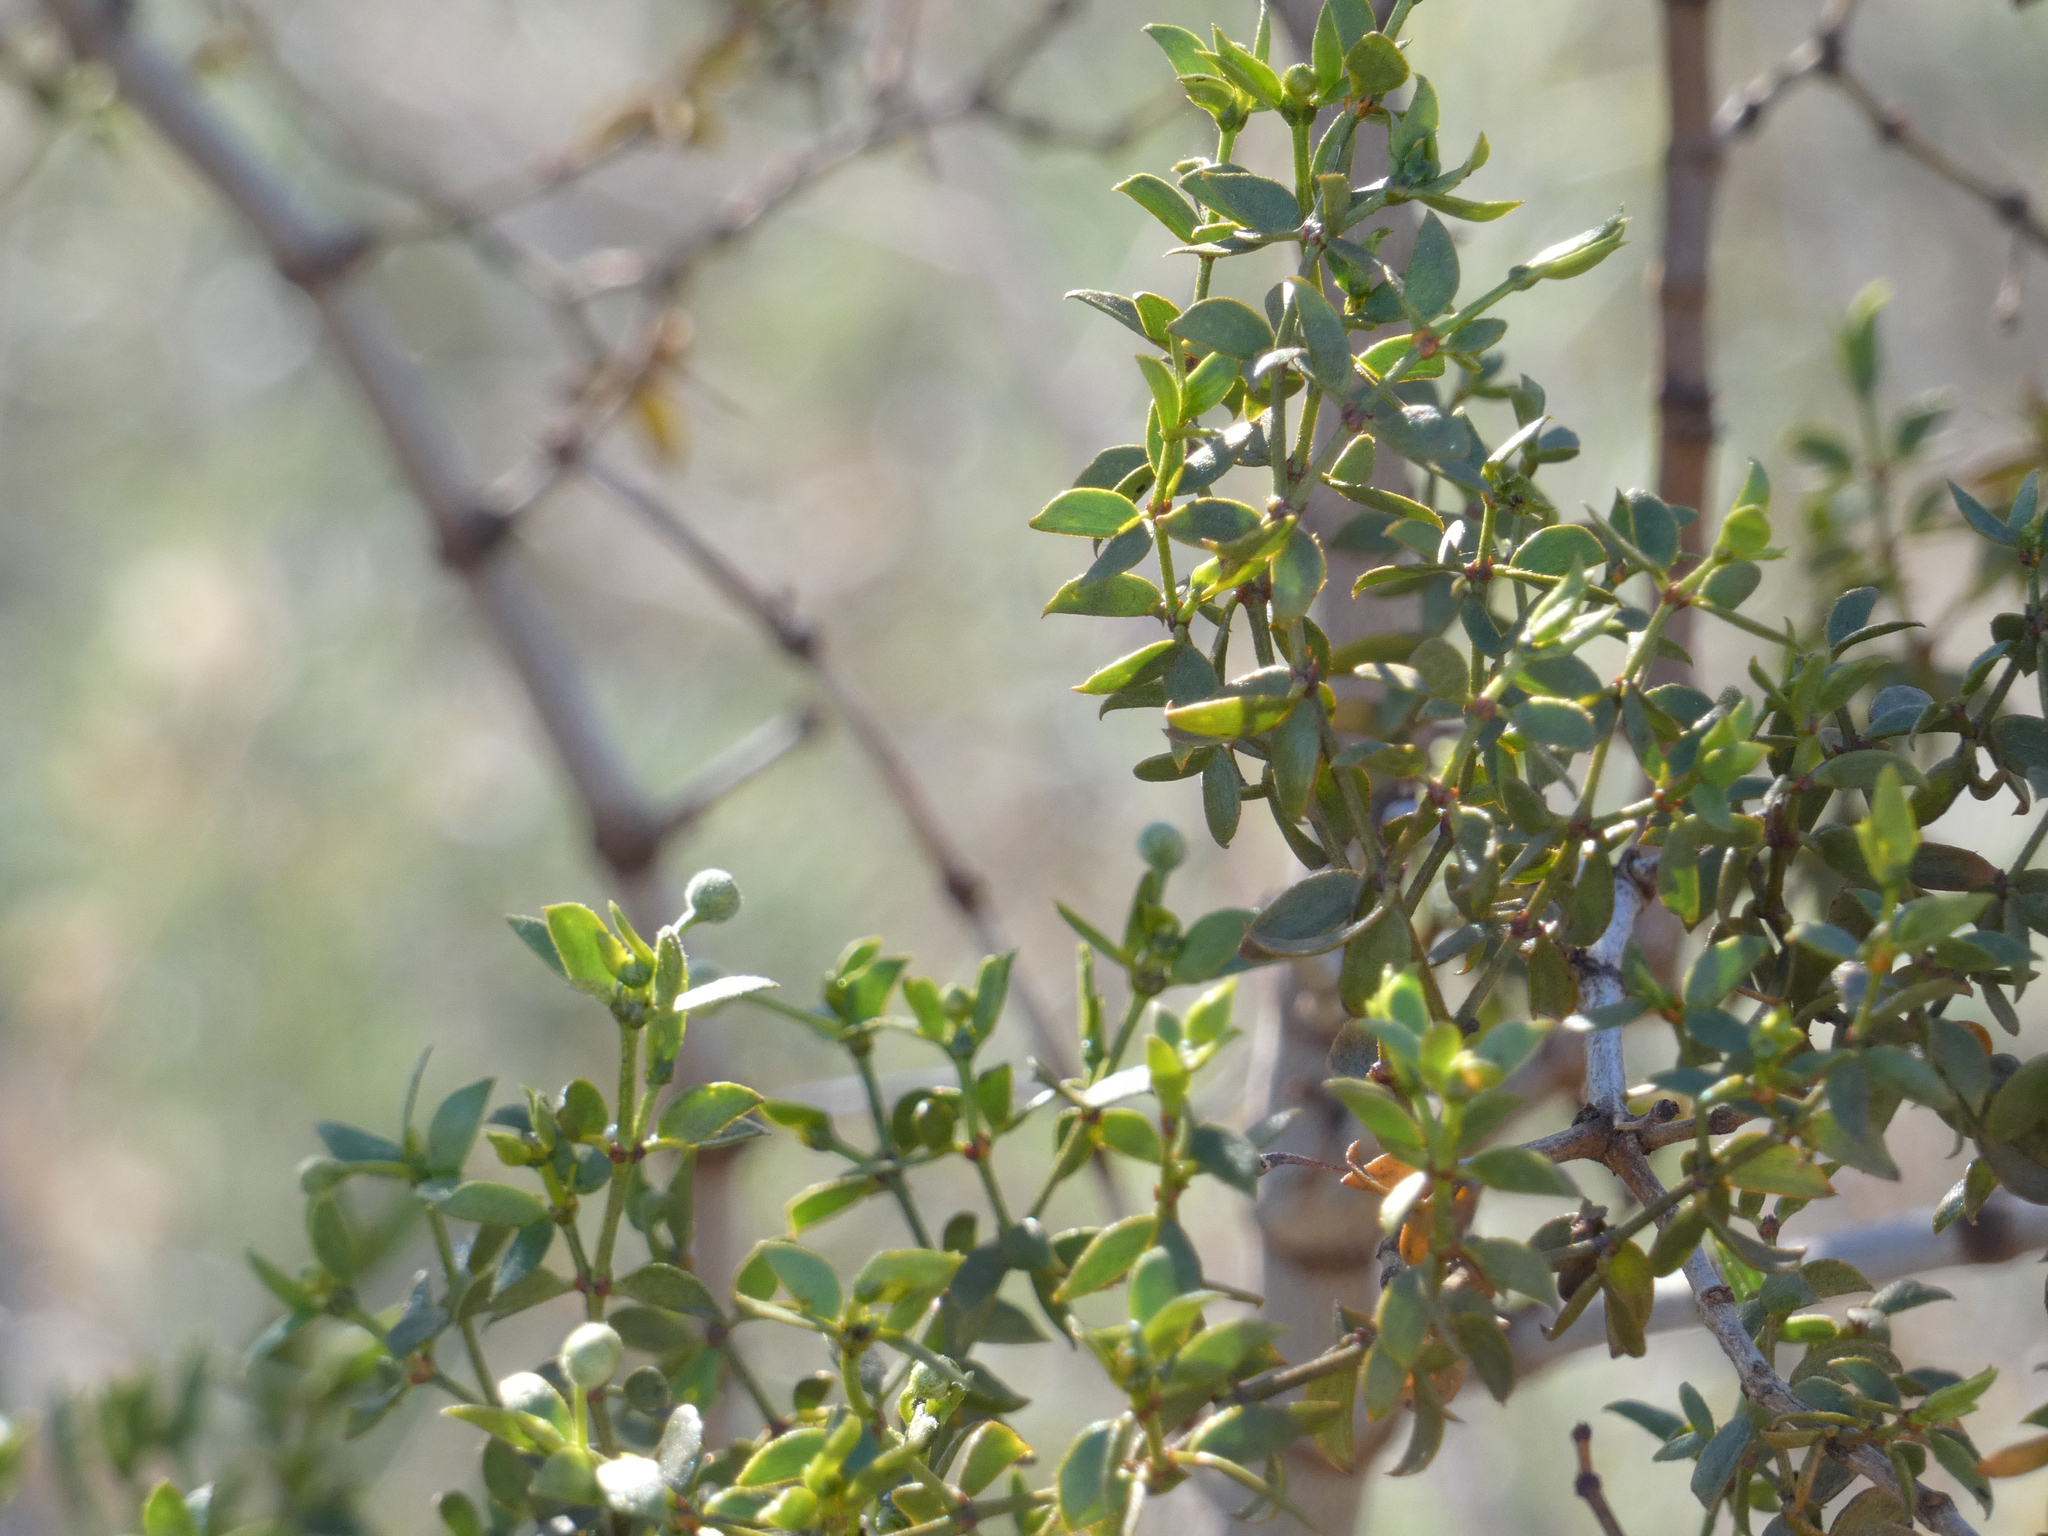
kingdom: Plantae
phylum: Tracheophyta
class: Magnoliopsida
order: Zygophyllales
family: Zygophyllaceae
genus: Larrea
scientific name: Larrea tridentata
